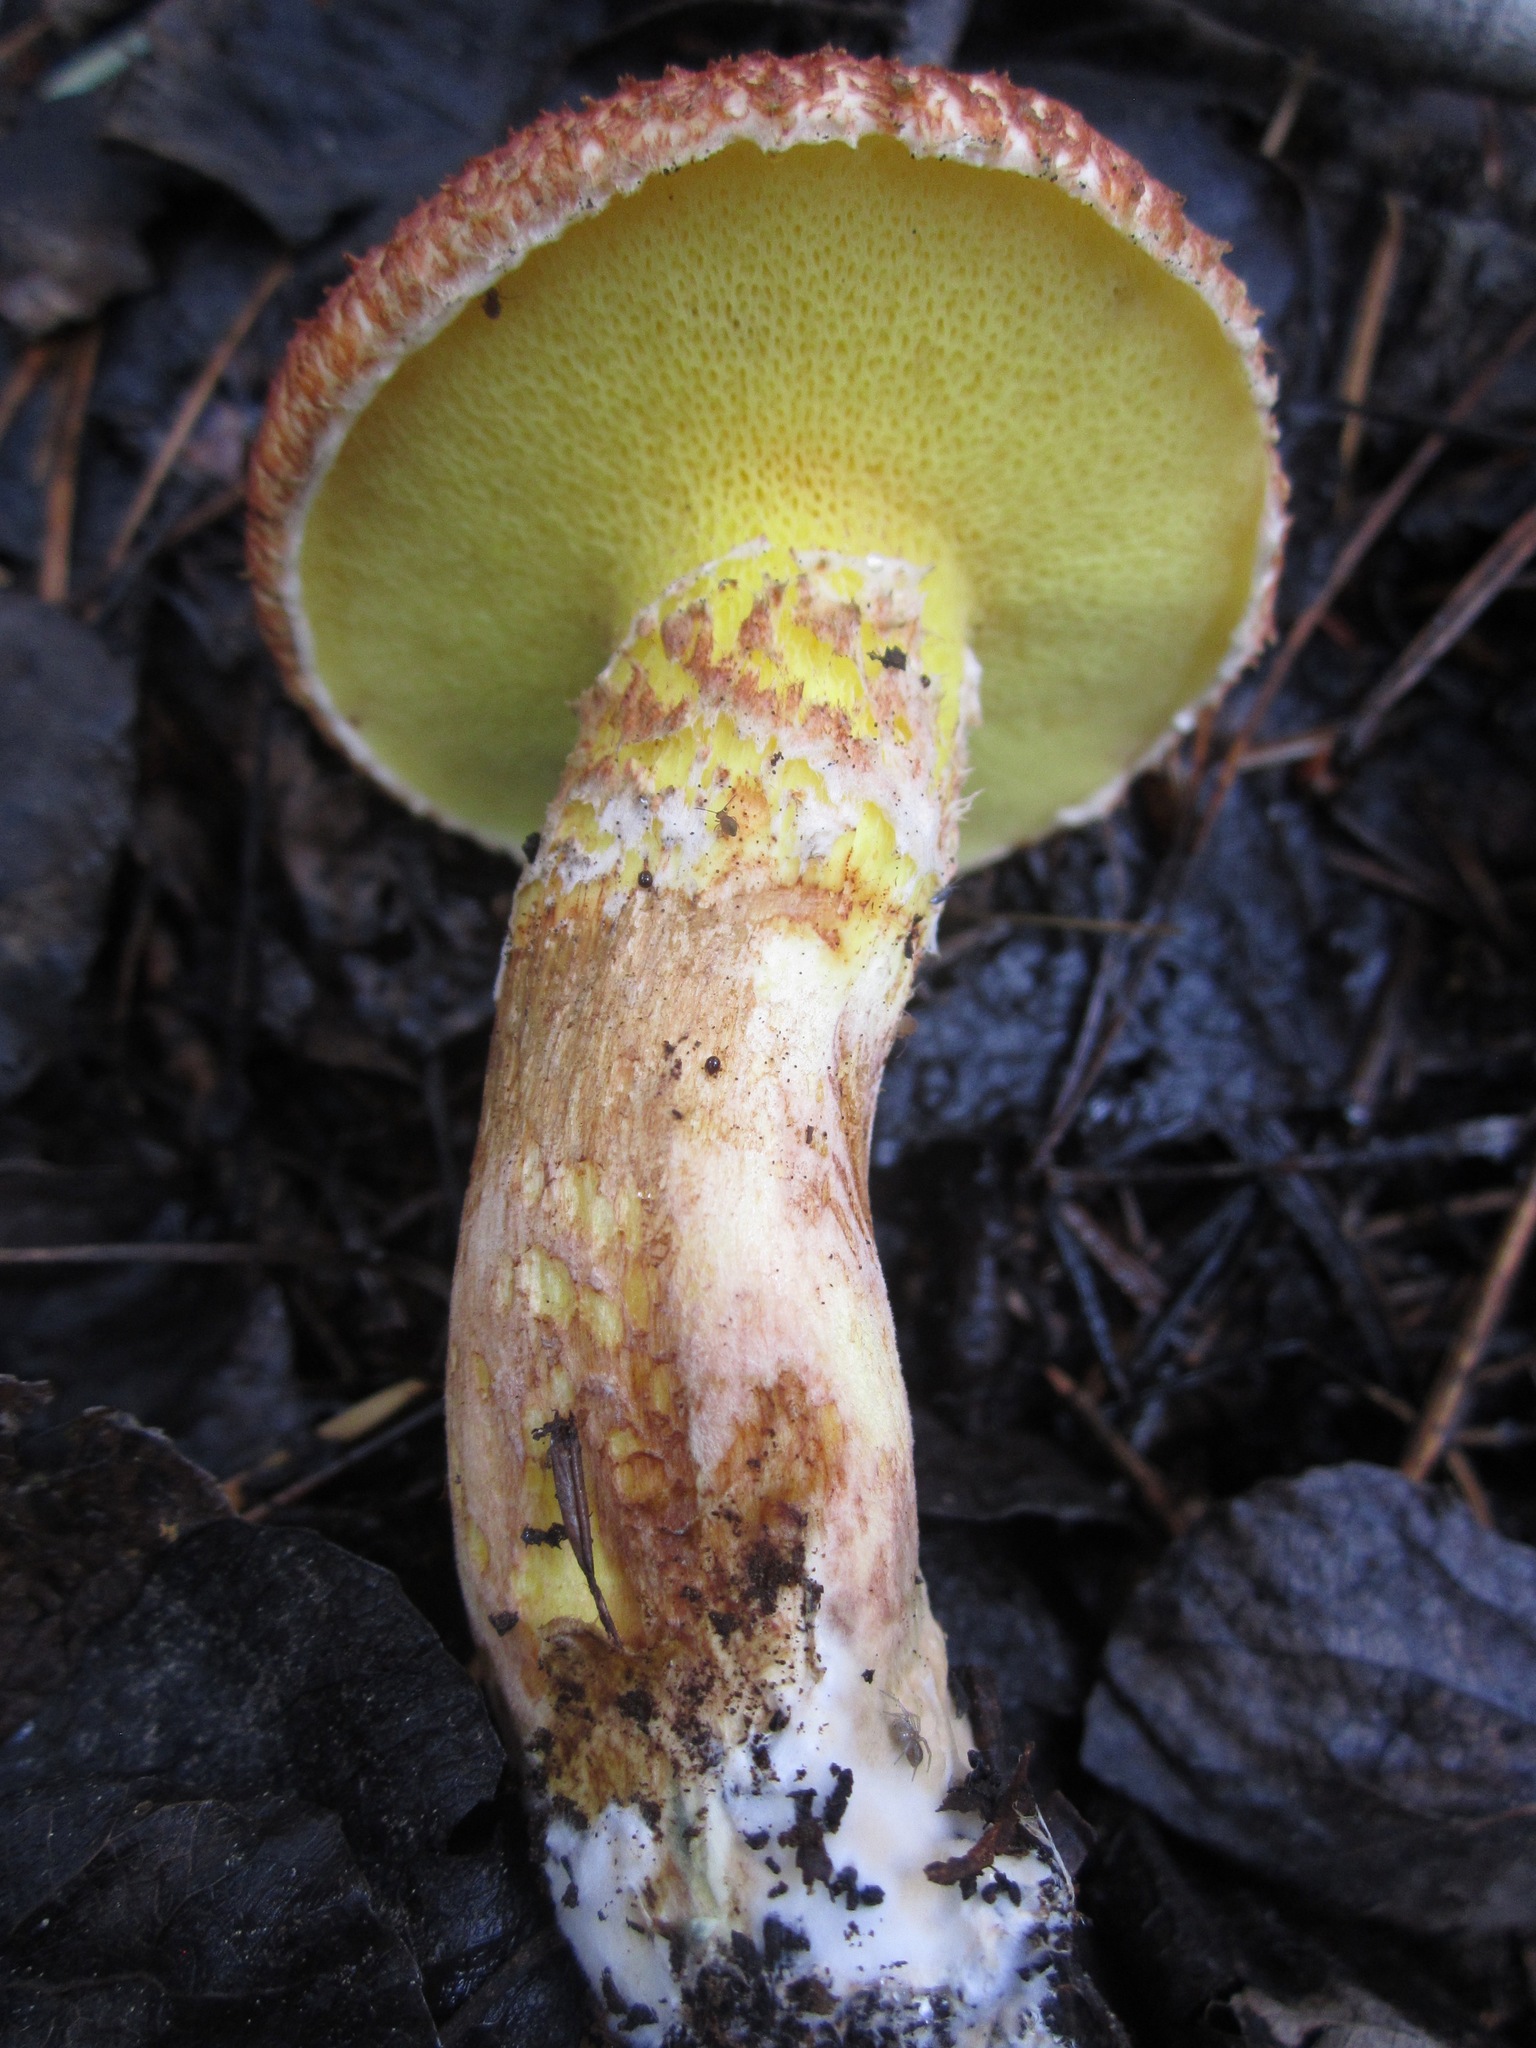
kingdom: Fungi
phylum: Basidiomycota
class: Agaricomycetes
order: Boletales
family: Suillaceae
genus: Suillus
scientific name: Suillus lakei
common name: Western painted suillus
